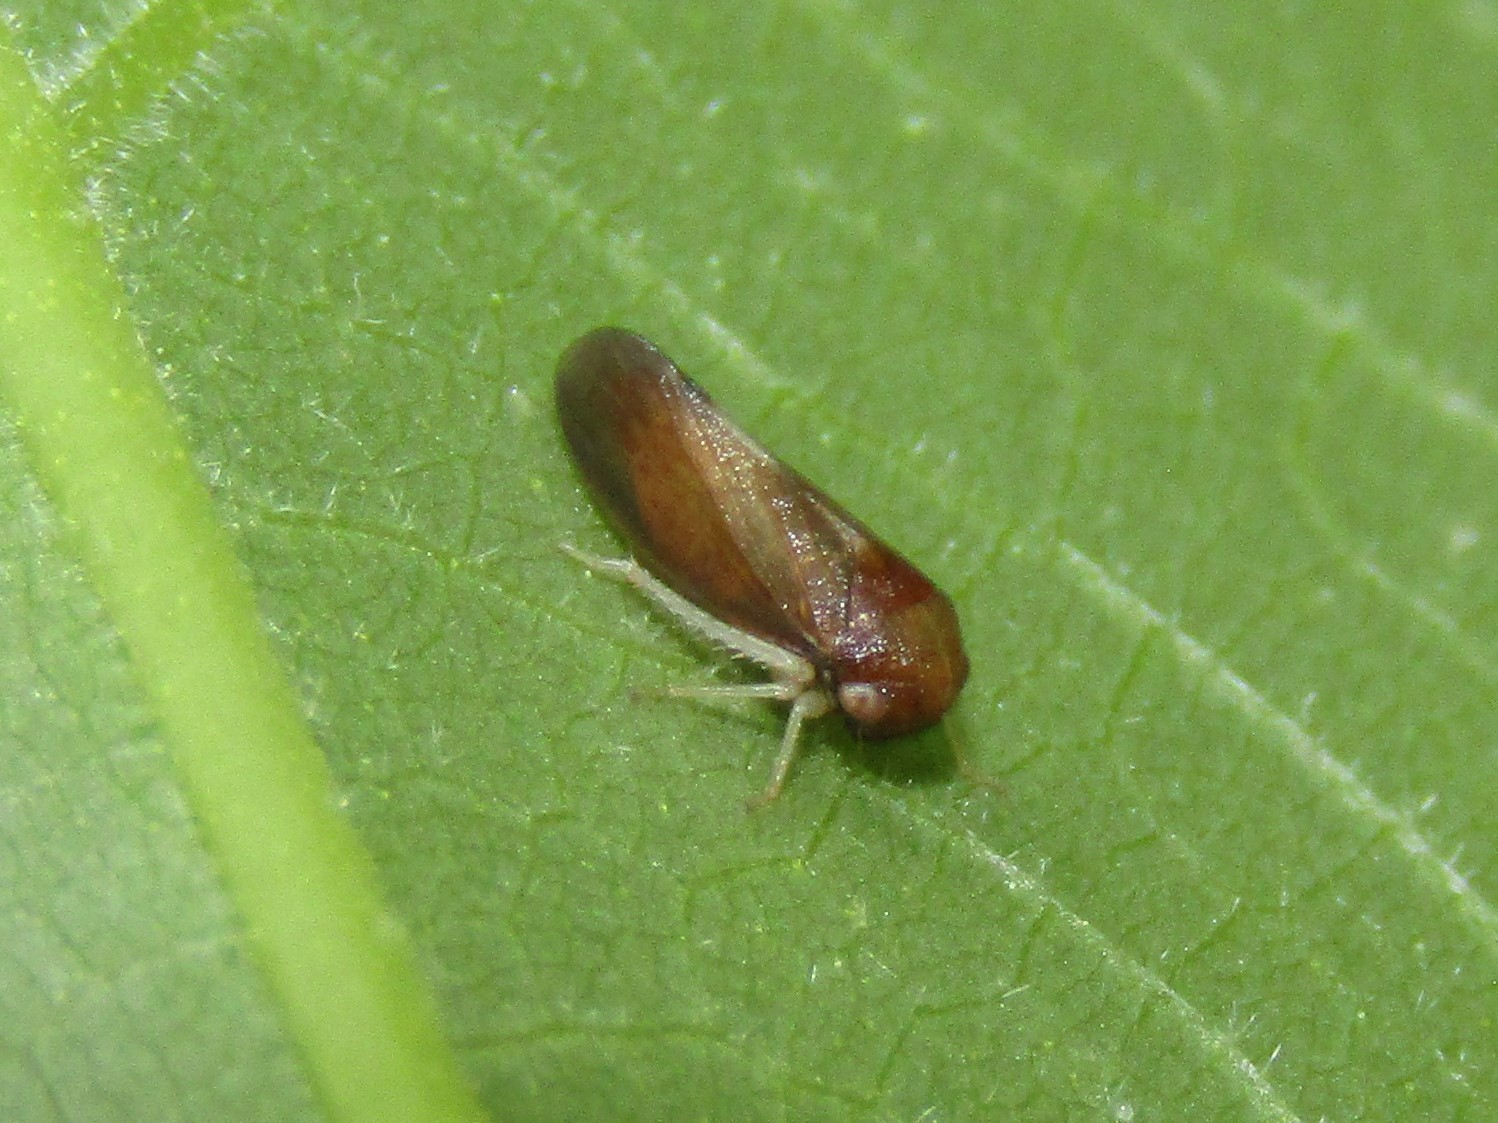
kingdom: Animalia
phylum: Arthropoda
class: Insecta
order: Hemiptera
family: Cicadellidae
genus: Oncopsis
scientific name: Oncopsis nigrinasi
